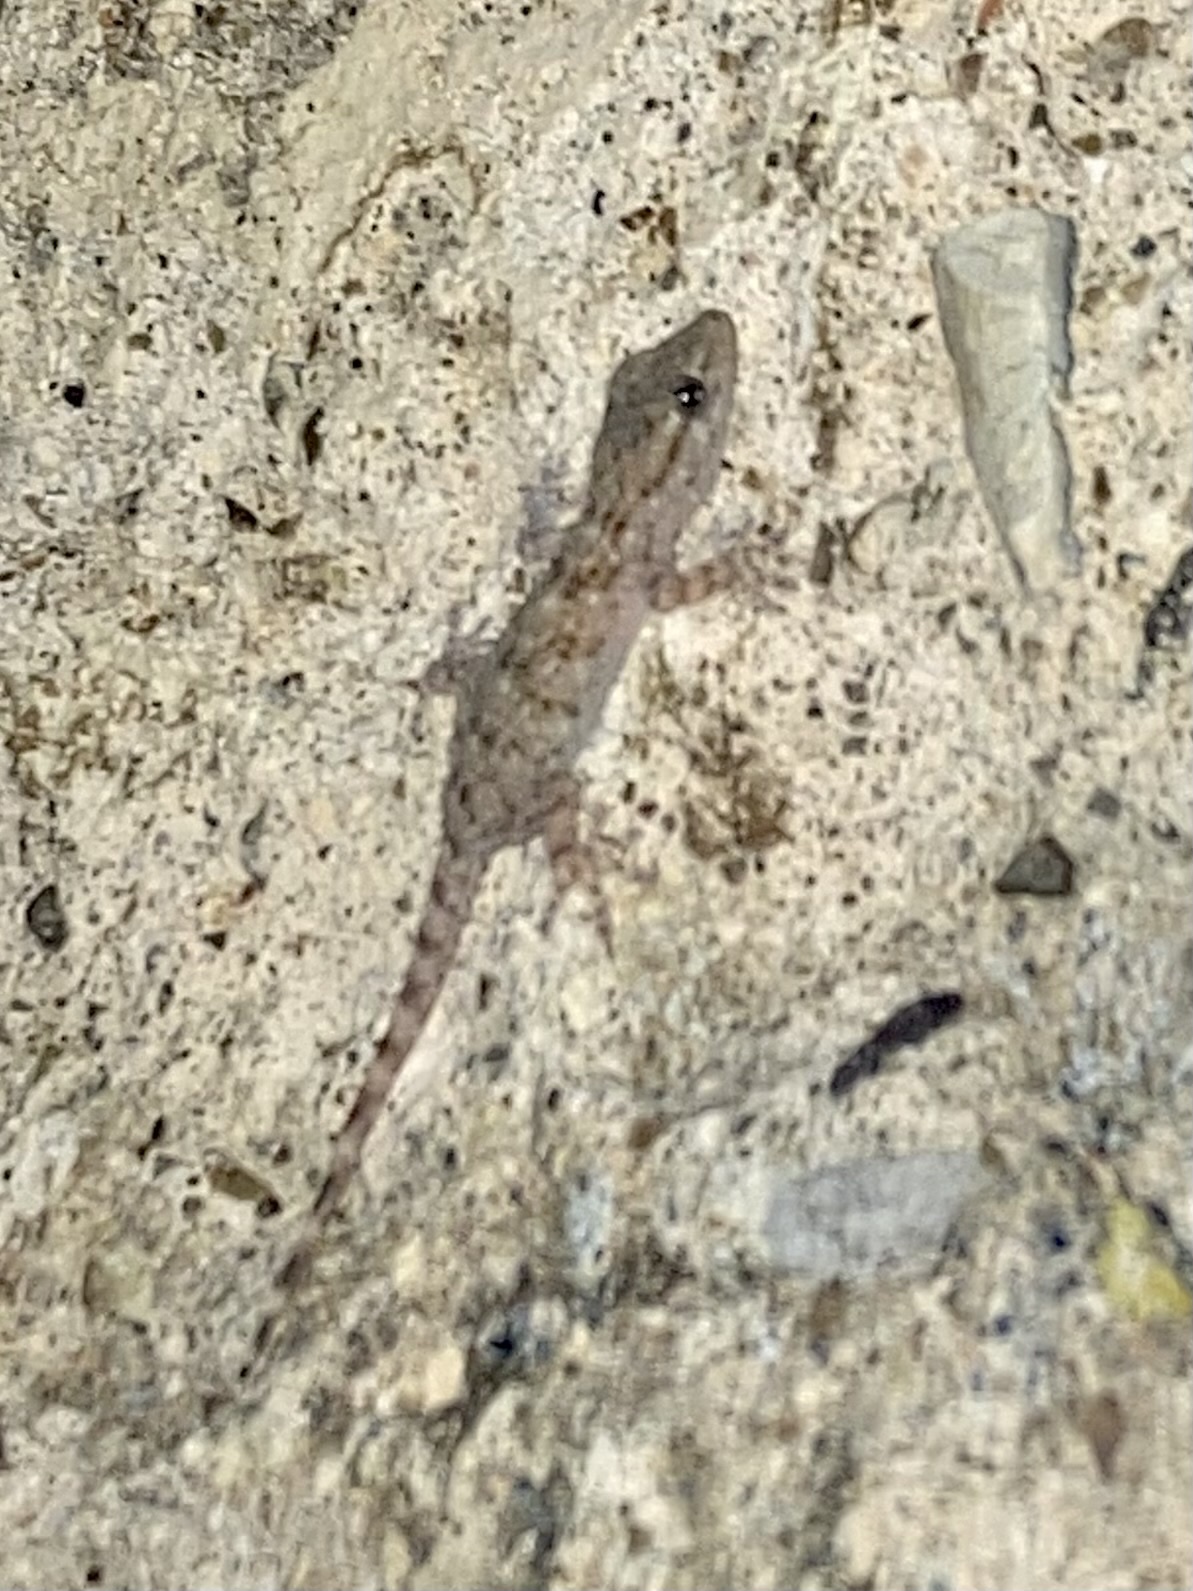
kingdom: Animalia
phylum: Chordata
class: Squamata
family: Phyllodactylidae
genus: Tarentola
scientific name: Tarentola mauritanica
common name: Moorish gecko
